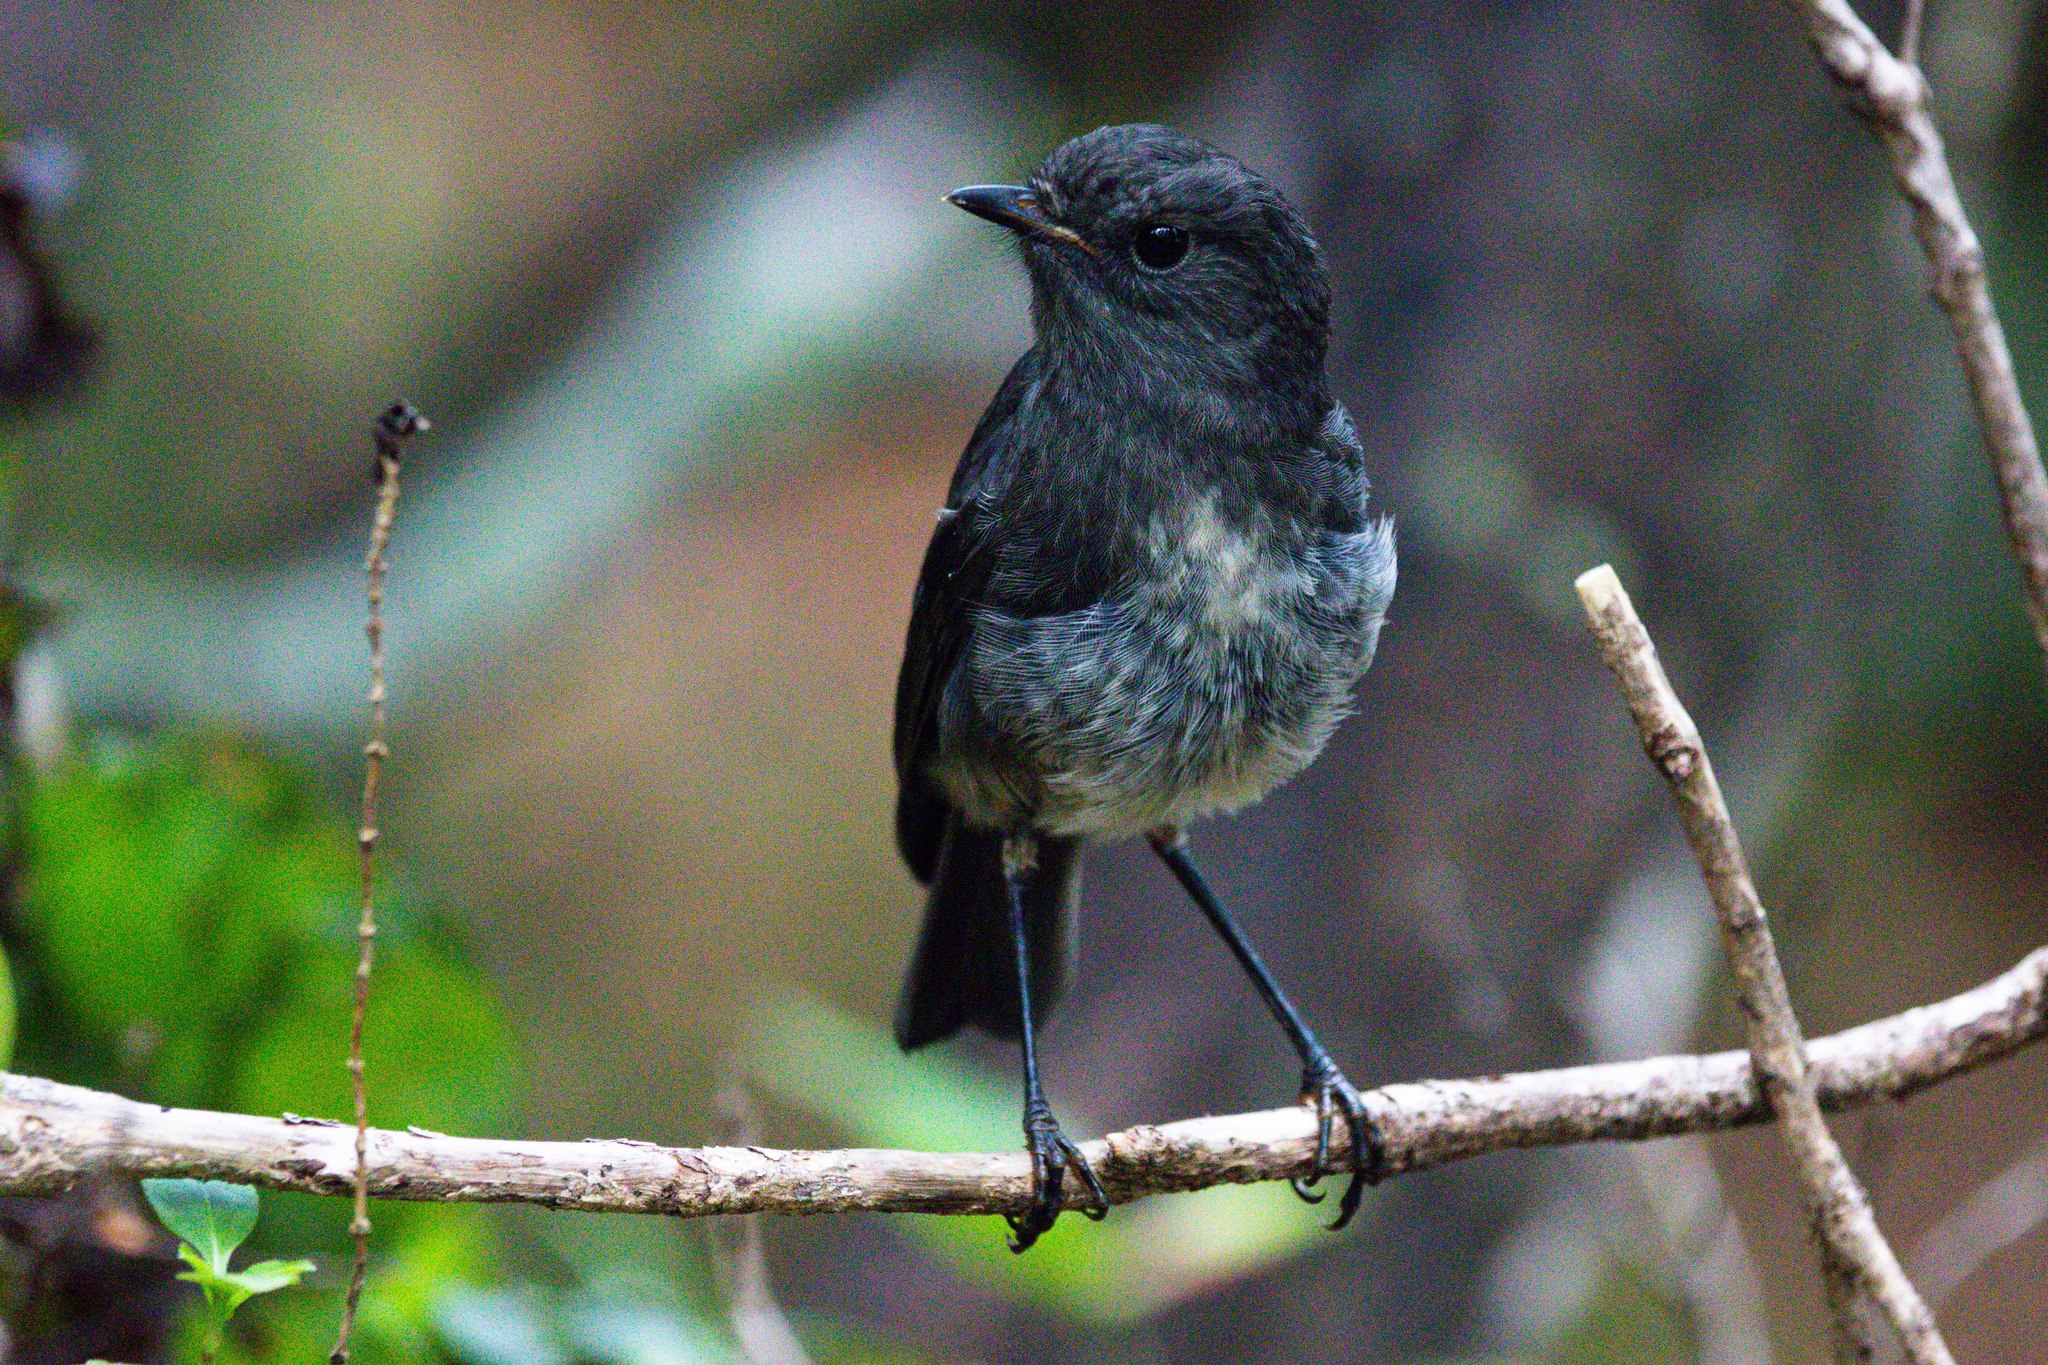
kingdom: Animalia
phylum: Chordata
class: Aves
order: Passeriformes
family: Petroicidae
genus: Petroica
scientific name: Petroica australis
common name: New zealand robin
